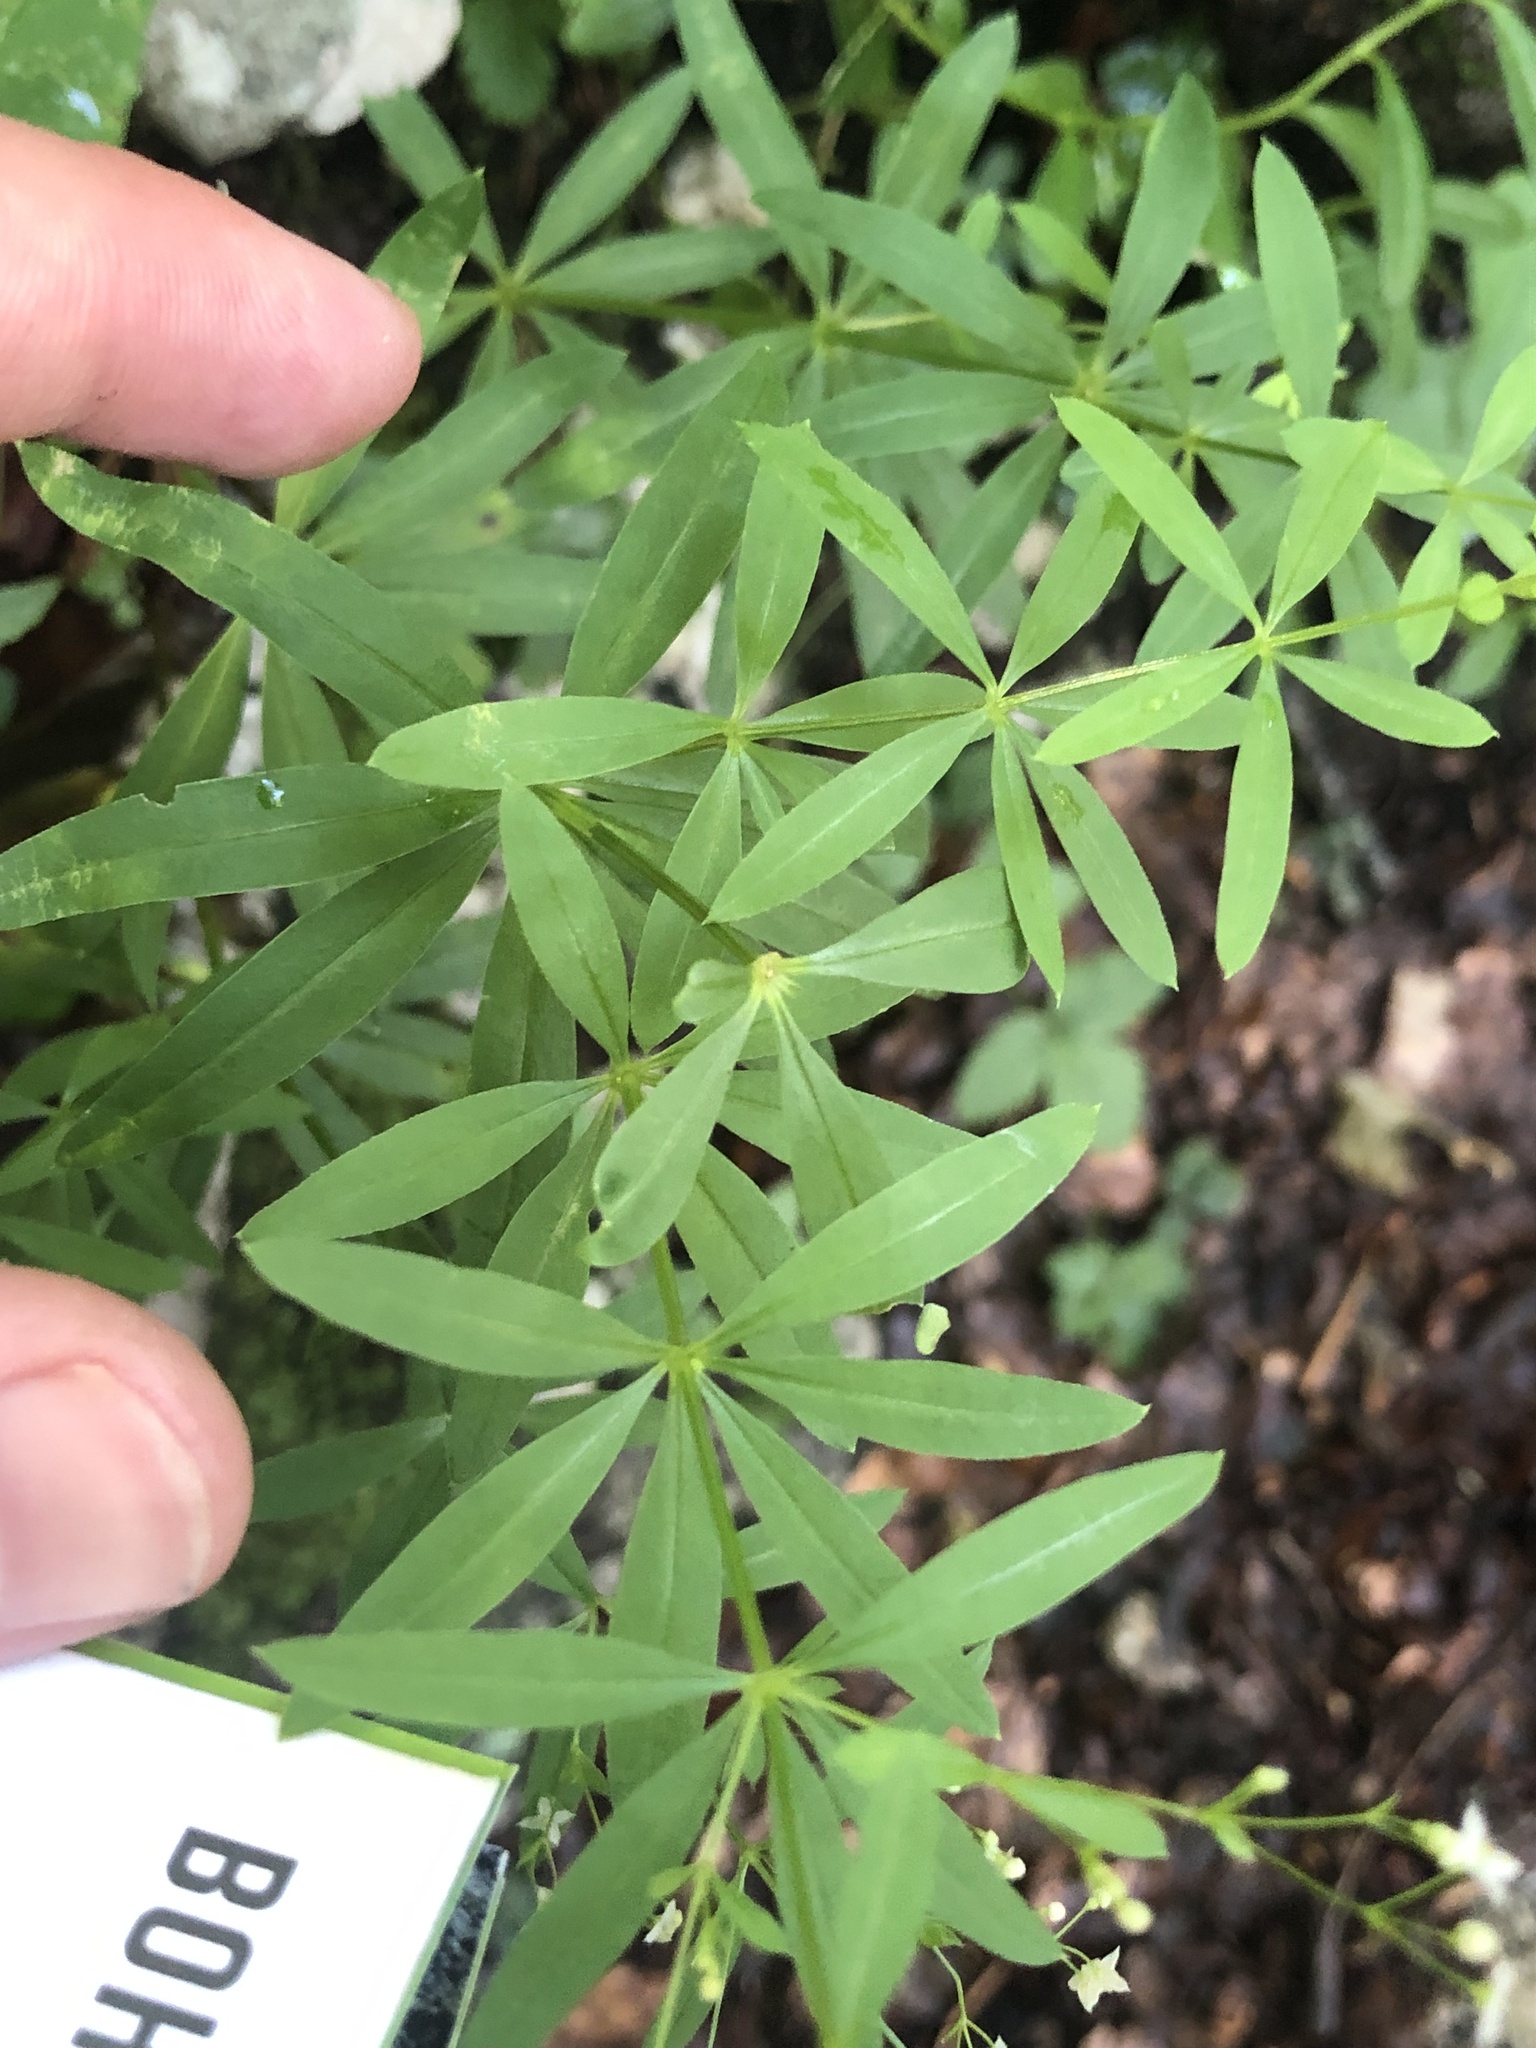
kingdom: Plantae
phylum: Tracheophyta
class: Magnoliopsida
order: Gentianales
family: Rubiaceae
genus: Galium
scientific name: Galium intermedium
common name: Bedstraw
